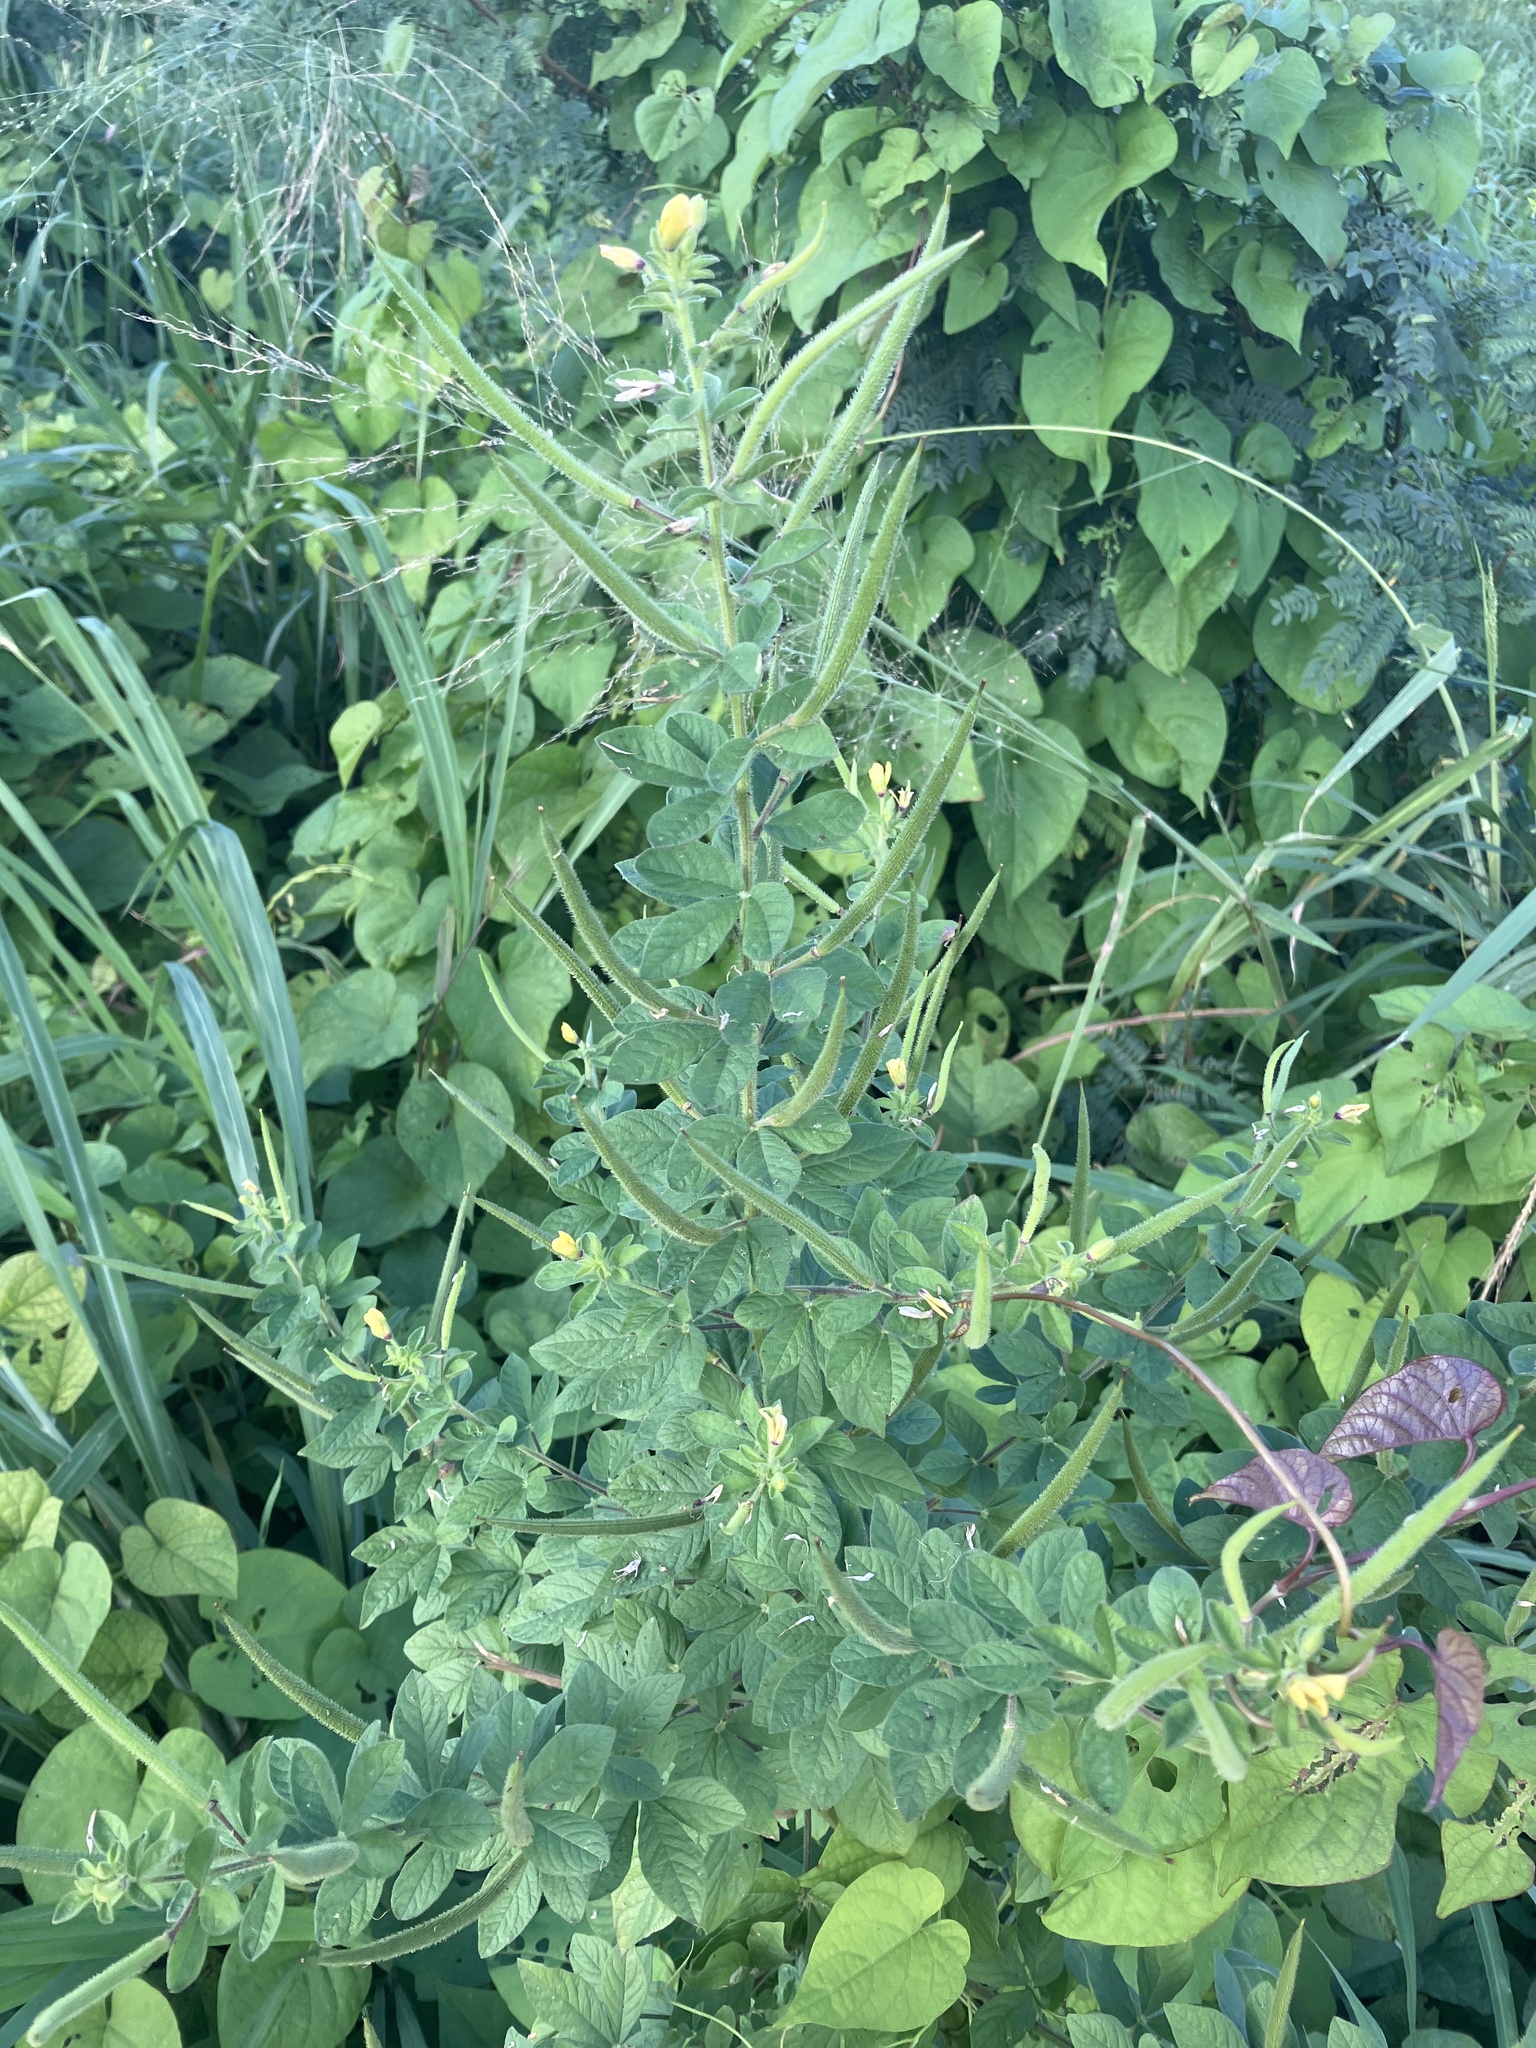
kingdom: Plantae
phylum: Tracheophyta
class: Magnoliopsida
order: Brassicales
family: Cleomaceae
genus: Arivela
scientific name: Arivela viscosa
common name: Asian spiderflower
